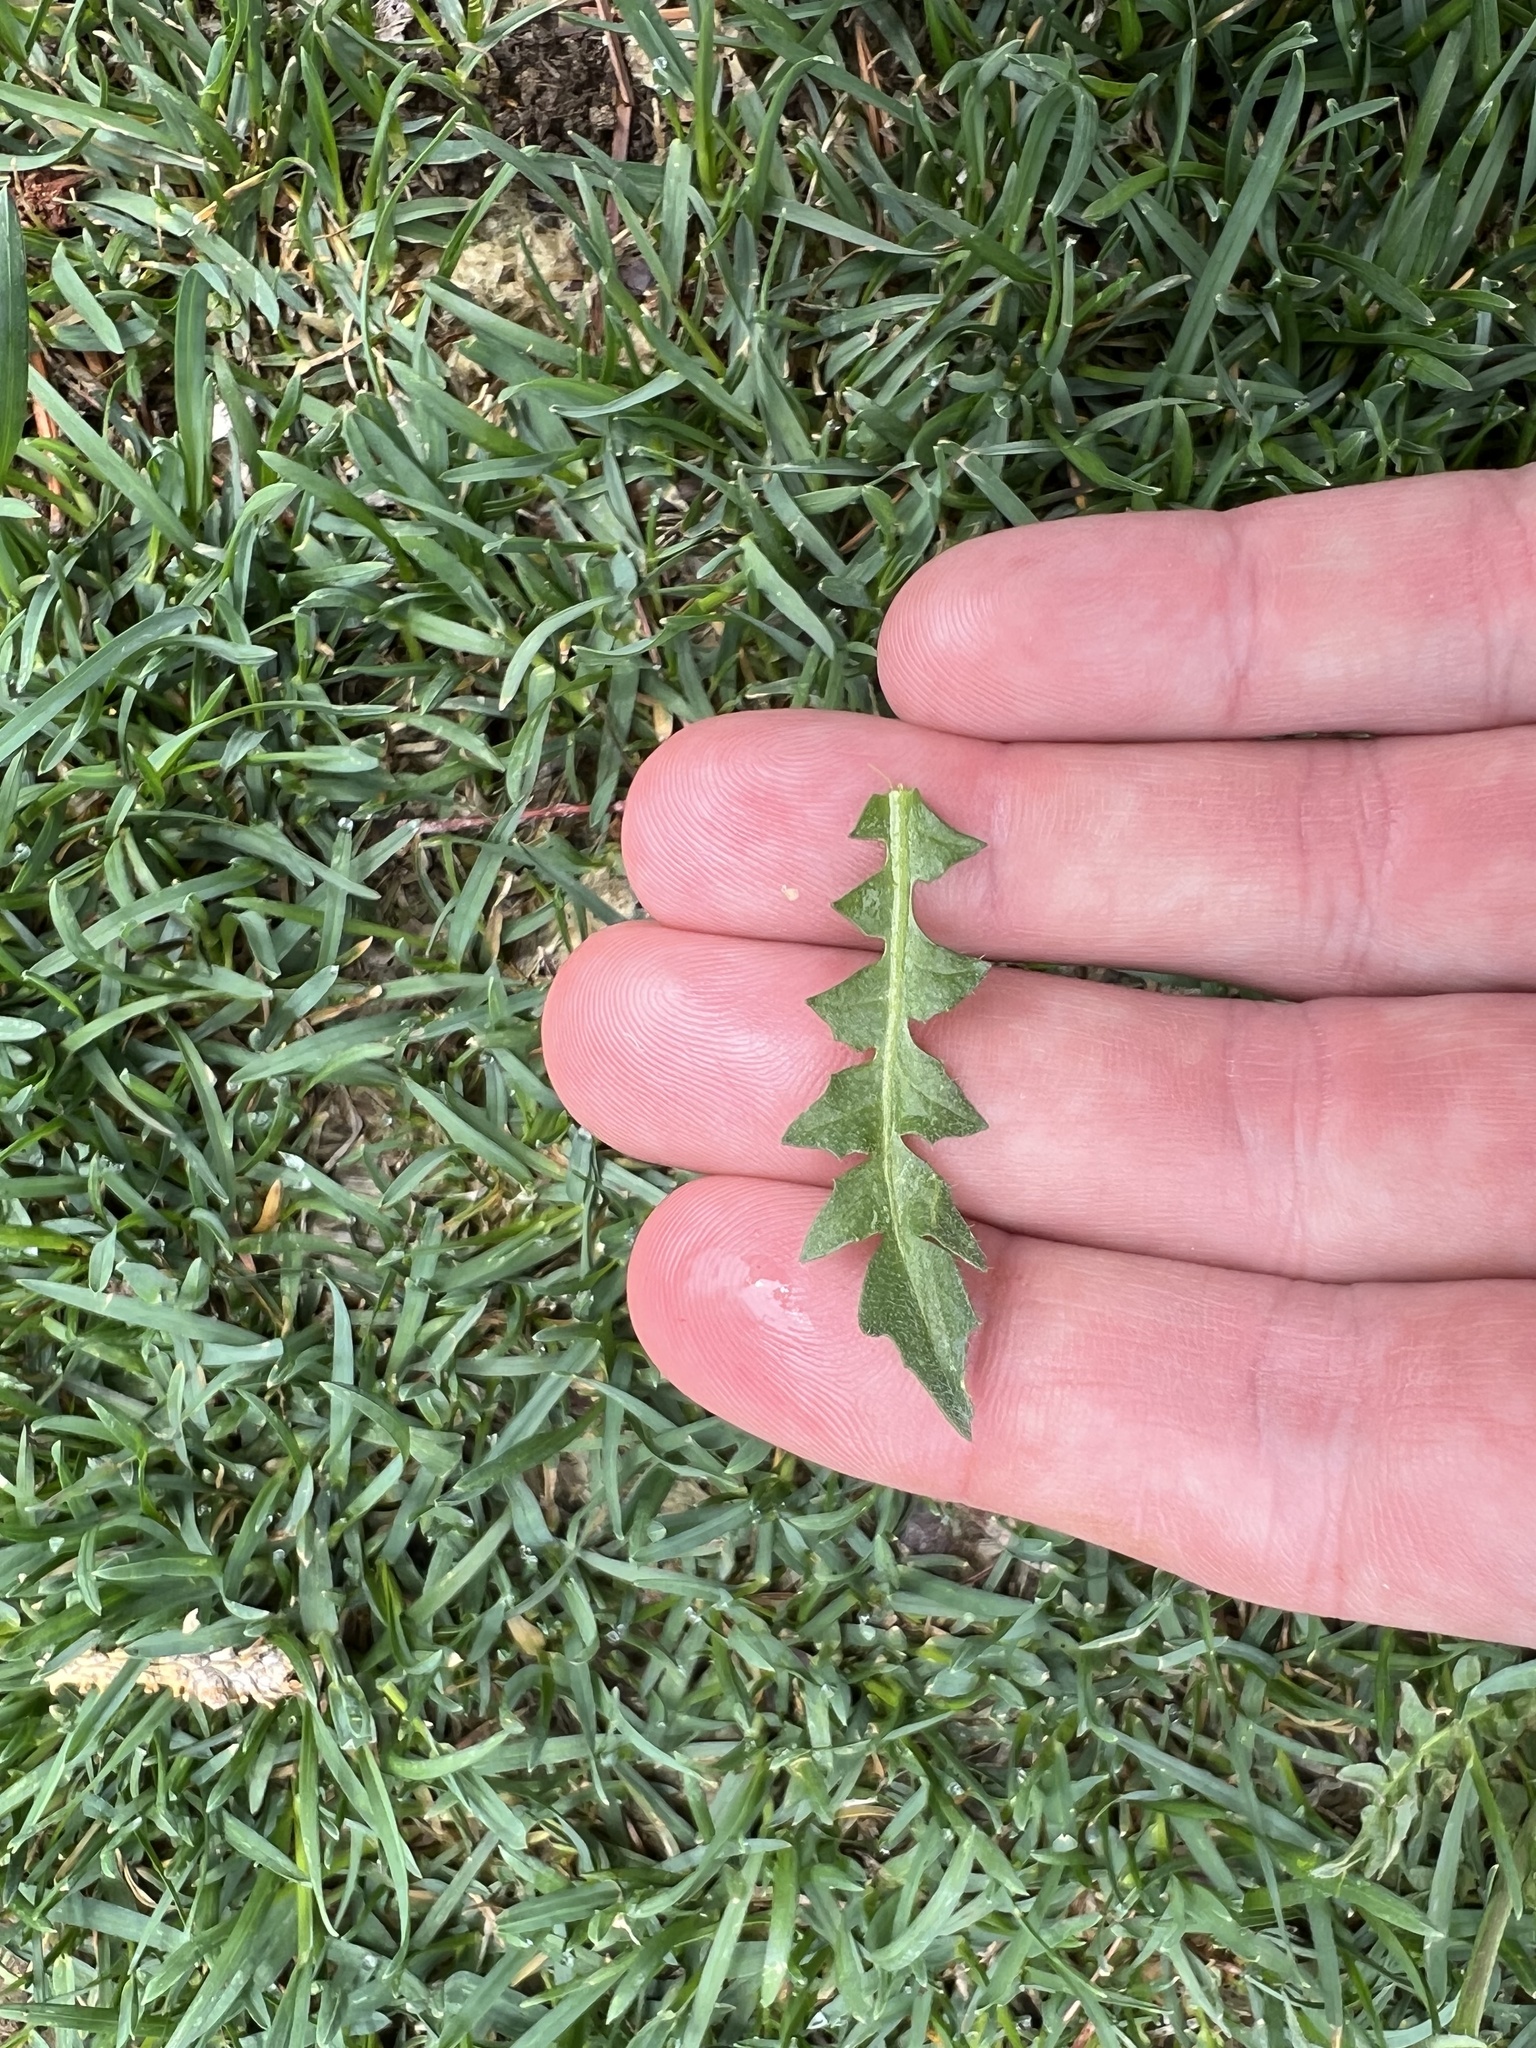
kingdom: Plantae
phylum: Tracheophyta
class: Magnoliopsida
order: Brassicales
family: Brassicaceae
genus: Capsella
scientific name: Capsella bursa-pastoris
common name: Shepherd's purse
